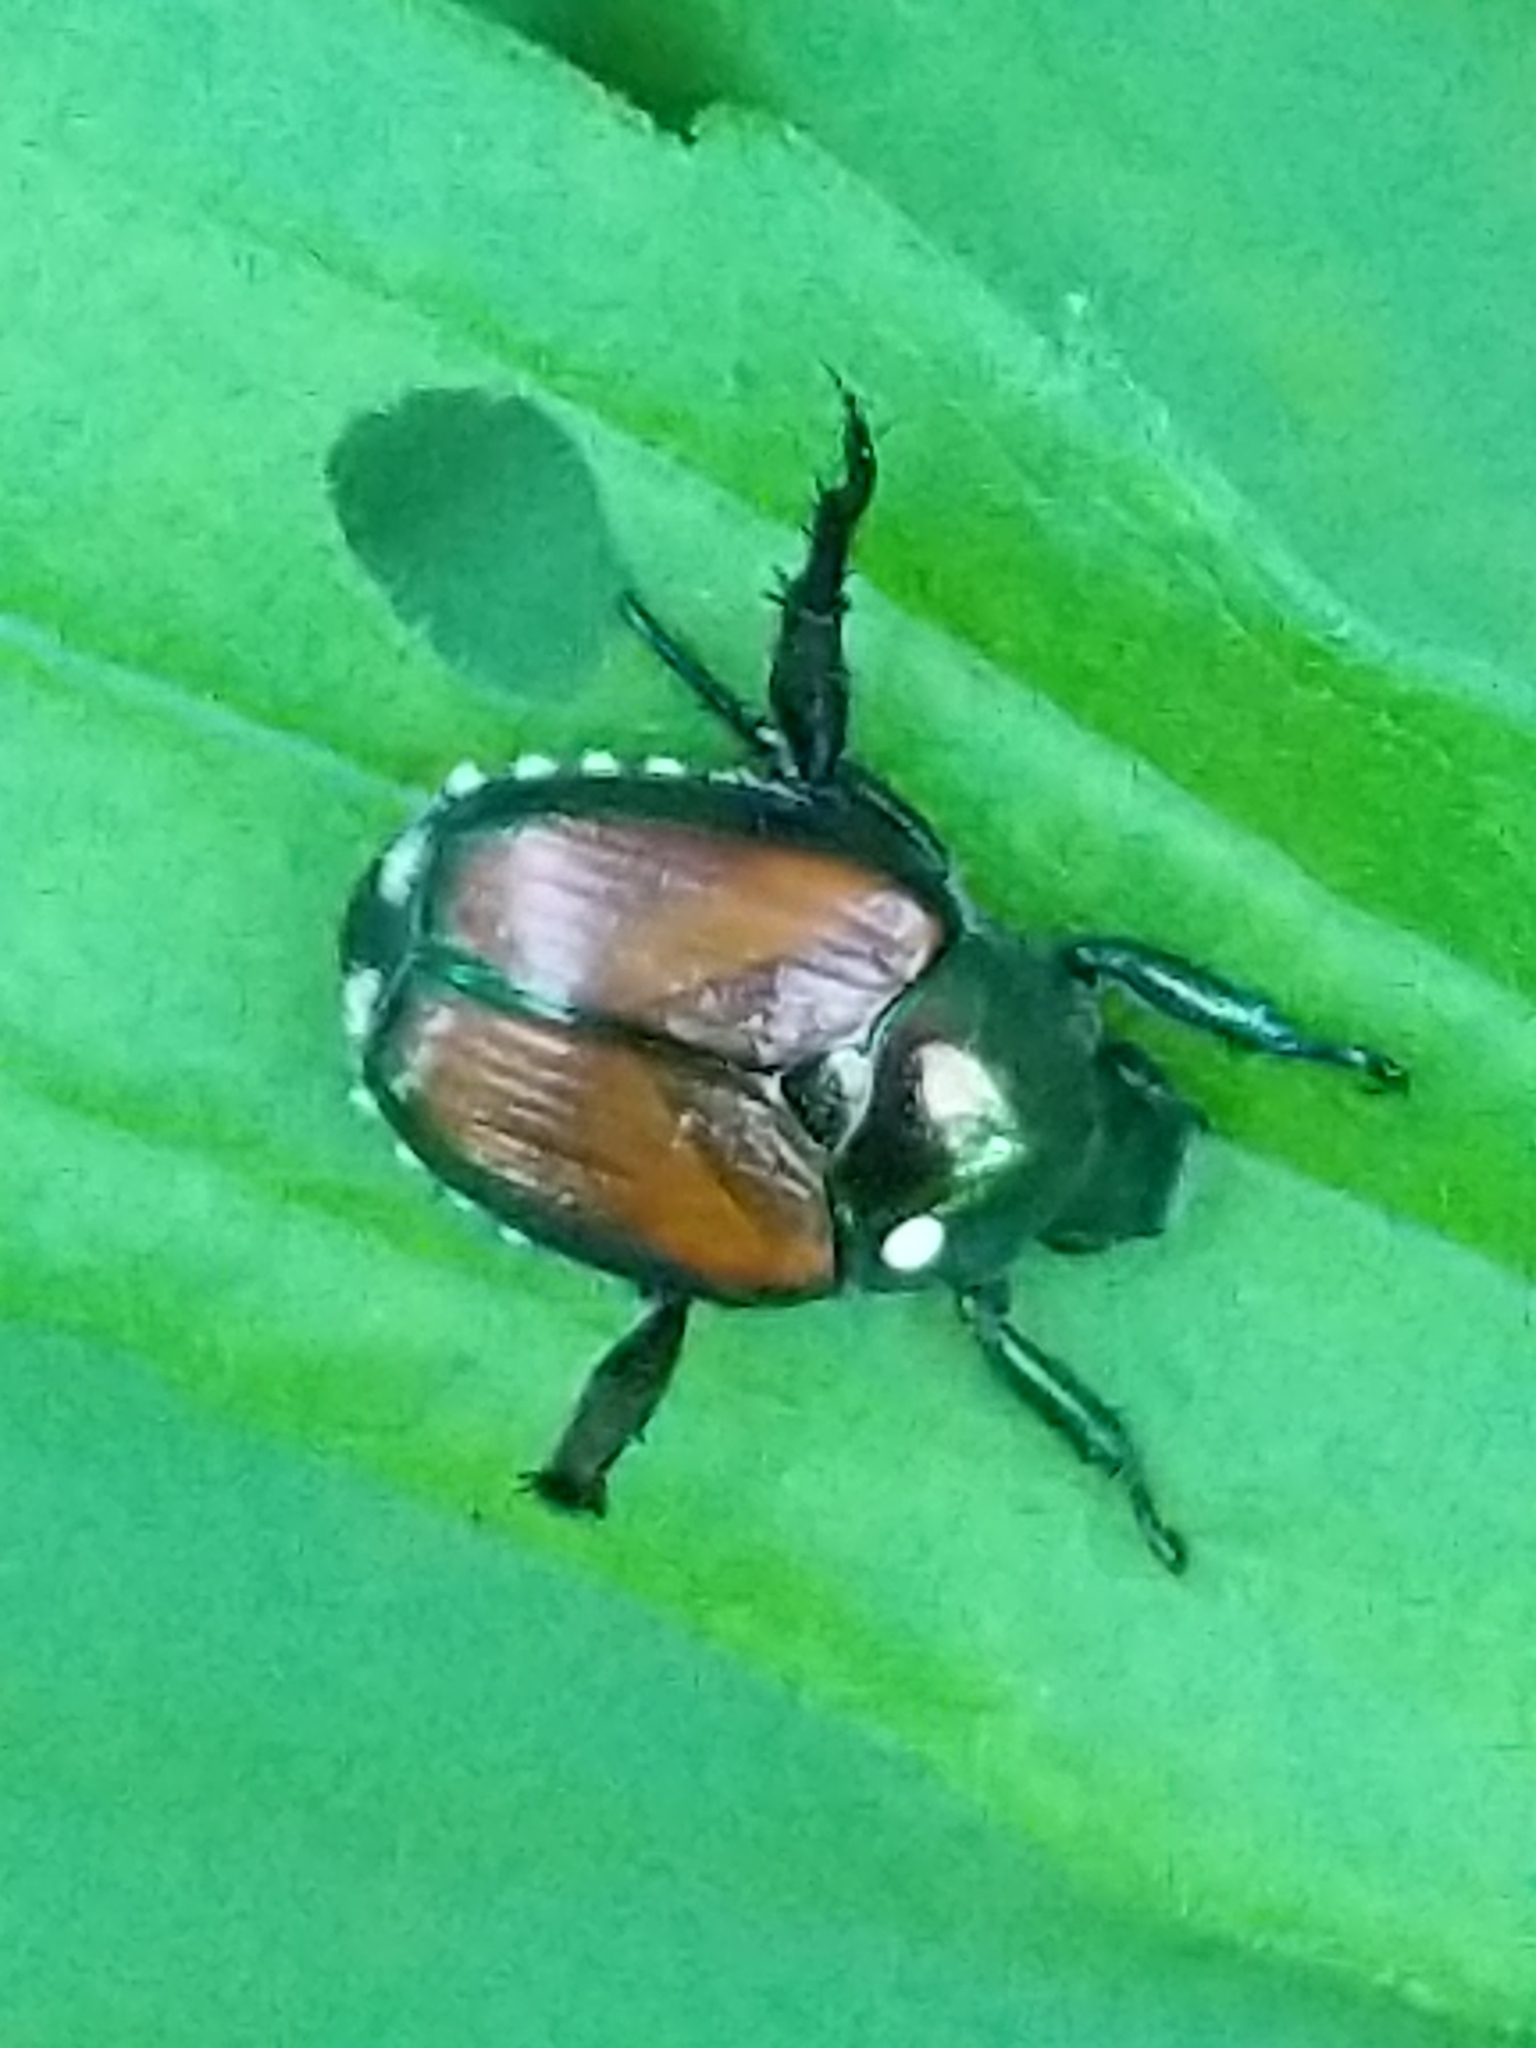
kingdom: Animalia
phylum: Arthropoda
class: Insecta
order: Diptera
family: Tachinidae
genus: Istocheta
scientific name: Istocheta aldrichi
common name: Parasitic wasp
